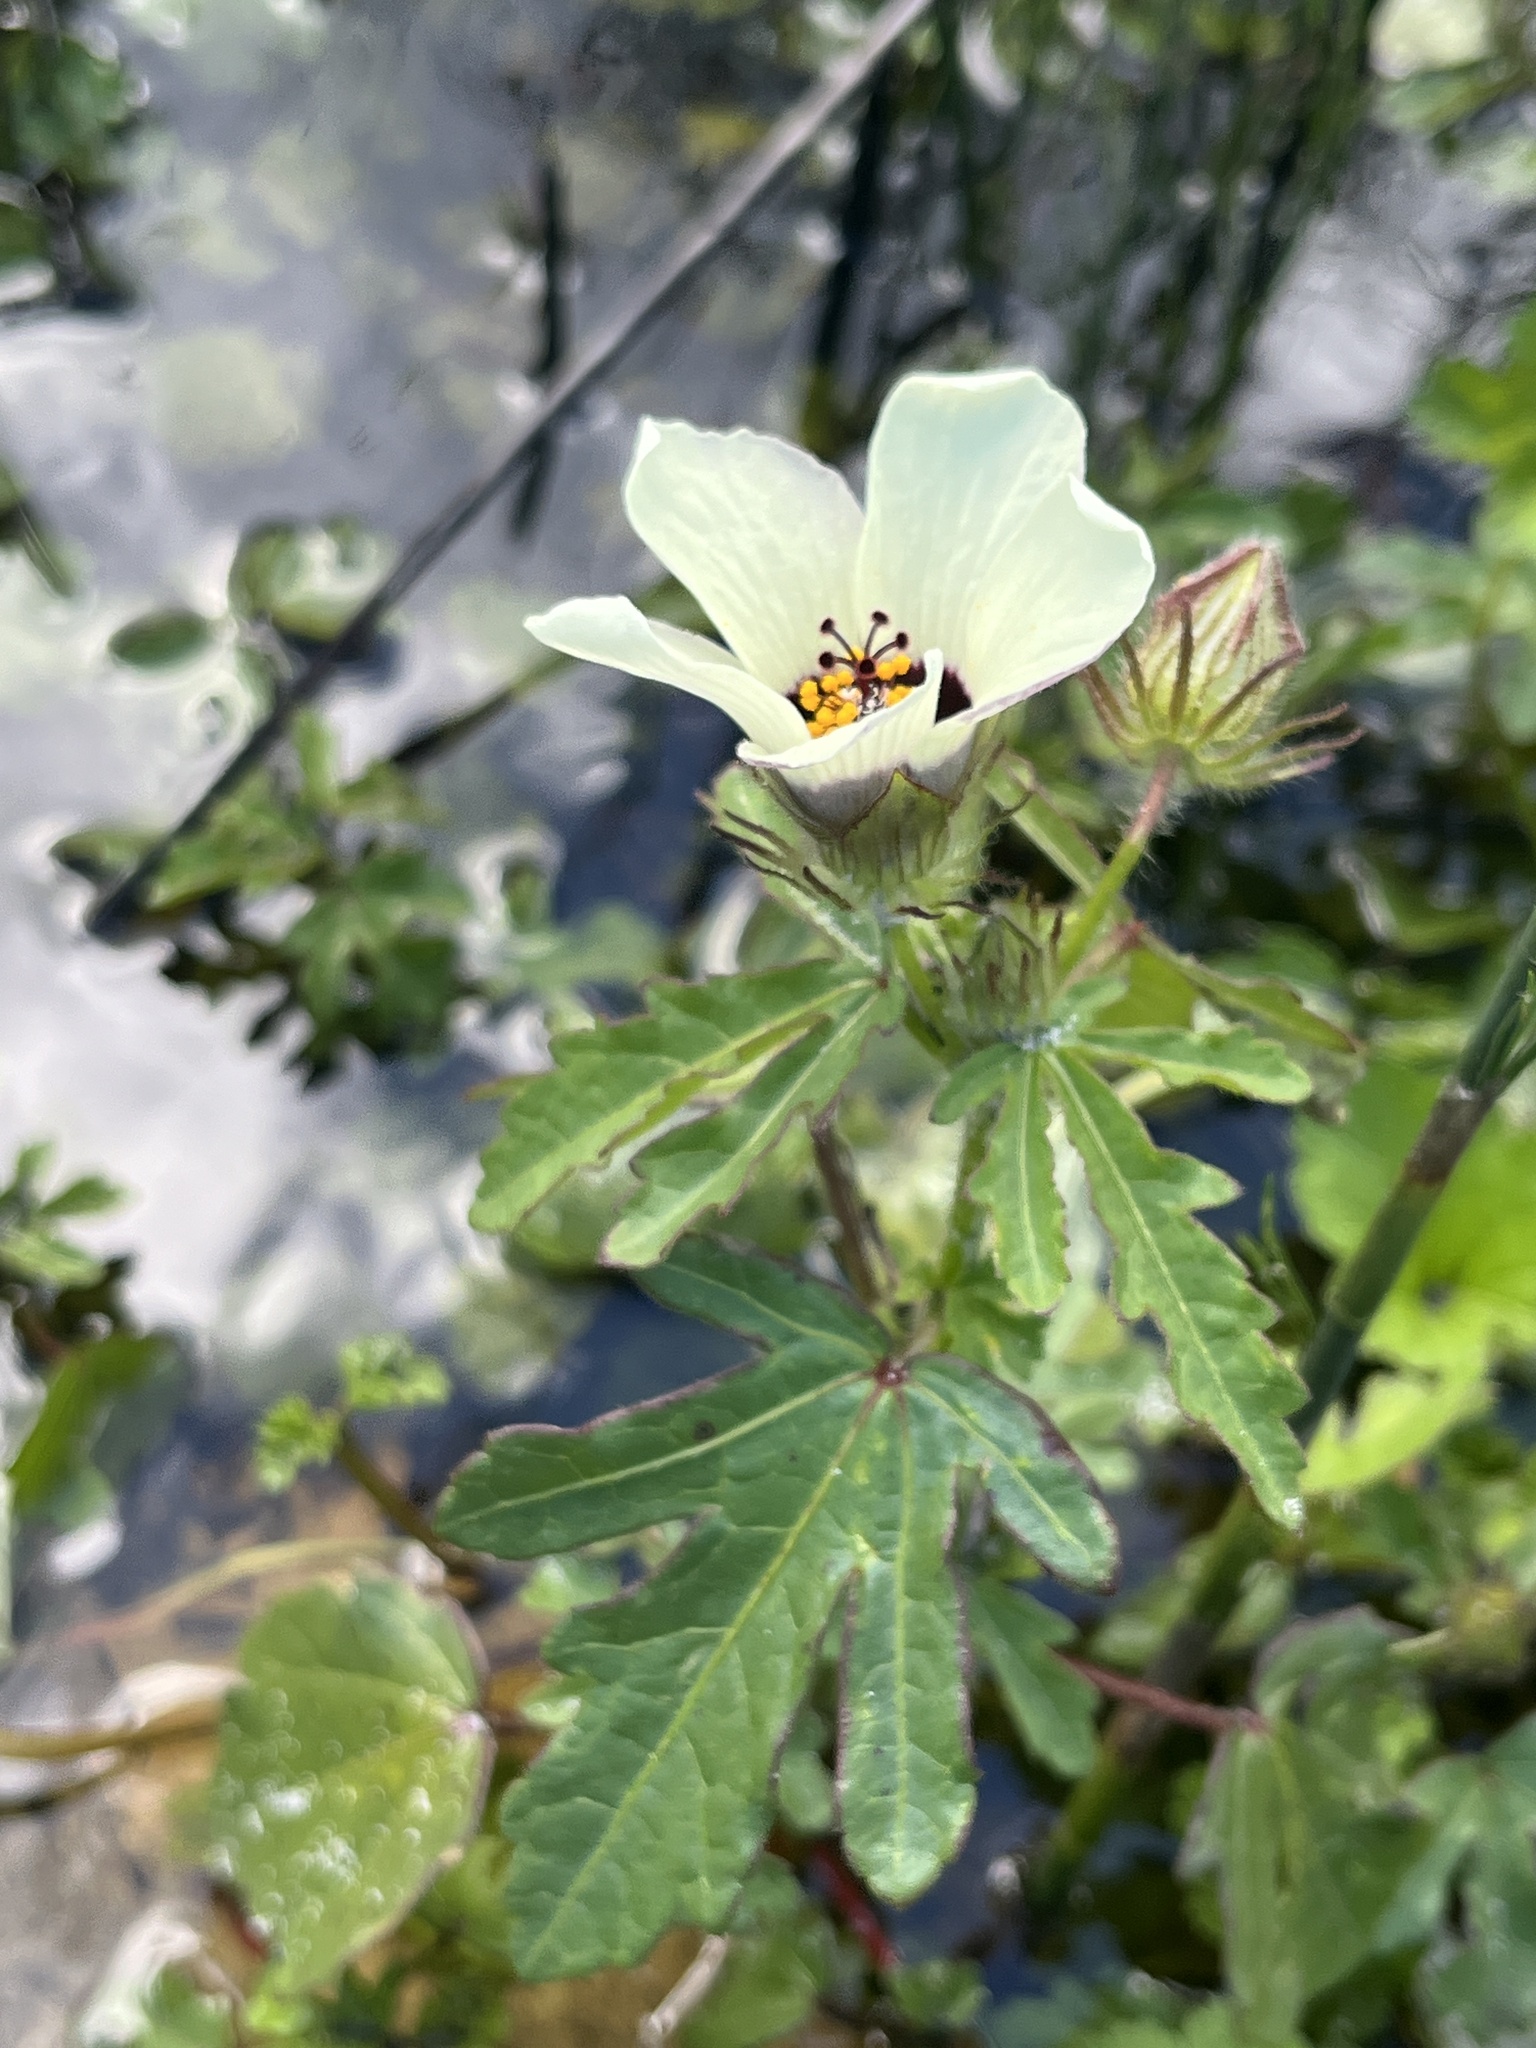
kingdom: Plantae
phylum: Tracheophyta
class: Magnoliopsida
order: Malvales
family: Malvaceae
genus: Hibiscus
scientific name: Hibiscus trionum
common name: Bladder ketmia
